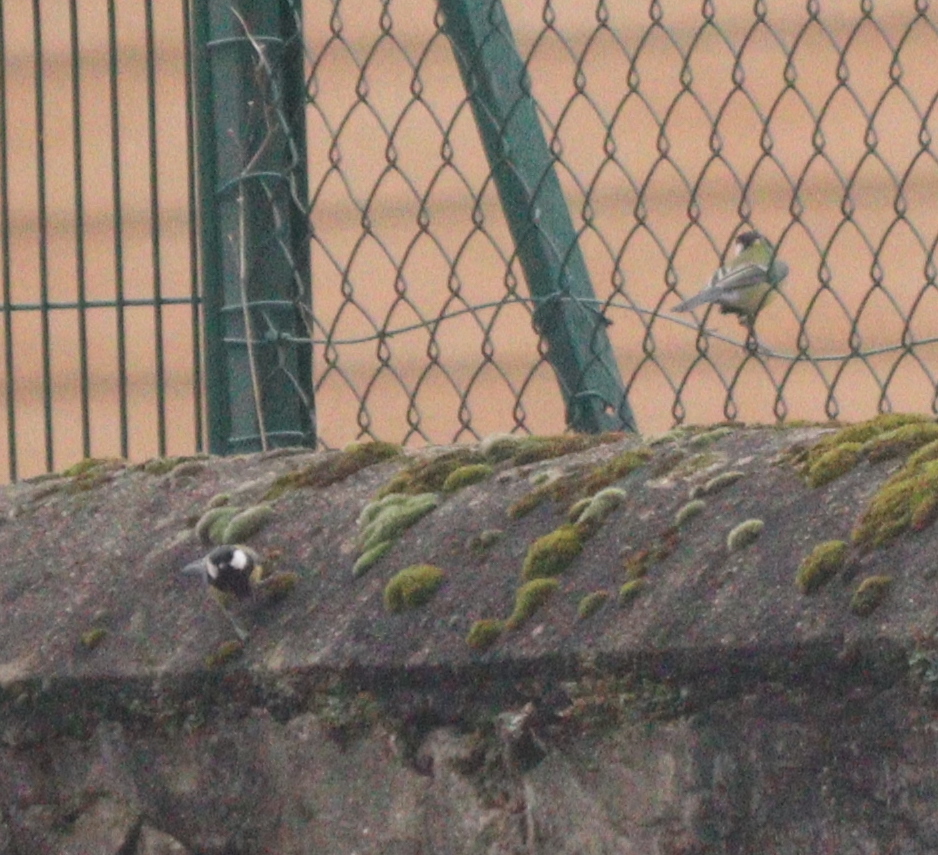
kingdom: Animalia
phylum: Chordata
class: Aves
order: Passeriformes
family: Paridae
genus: Parus
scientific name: Parus major
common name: Great tit
